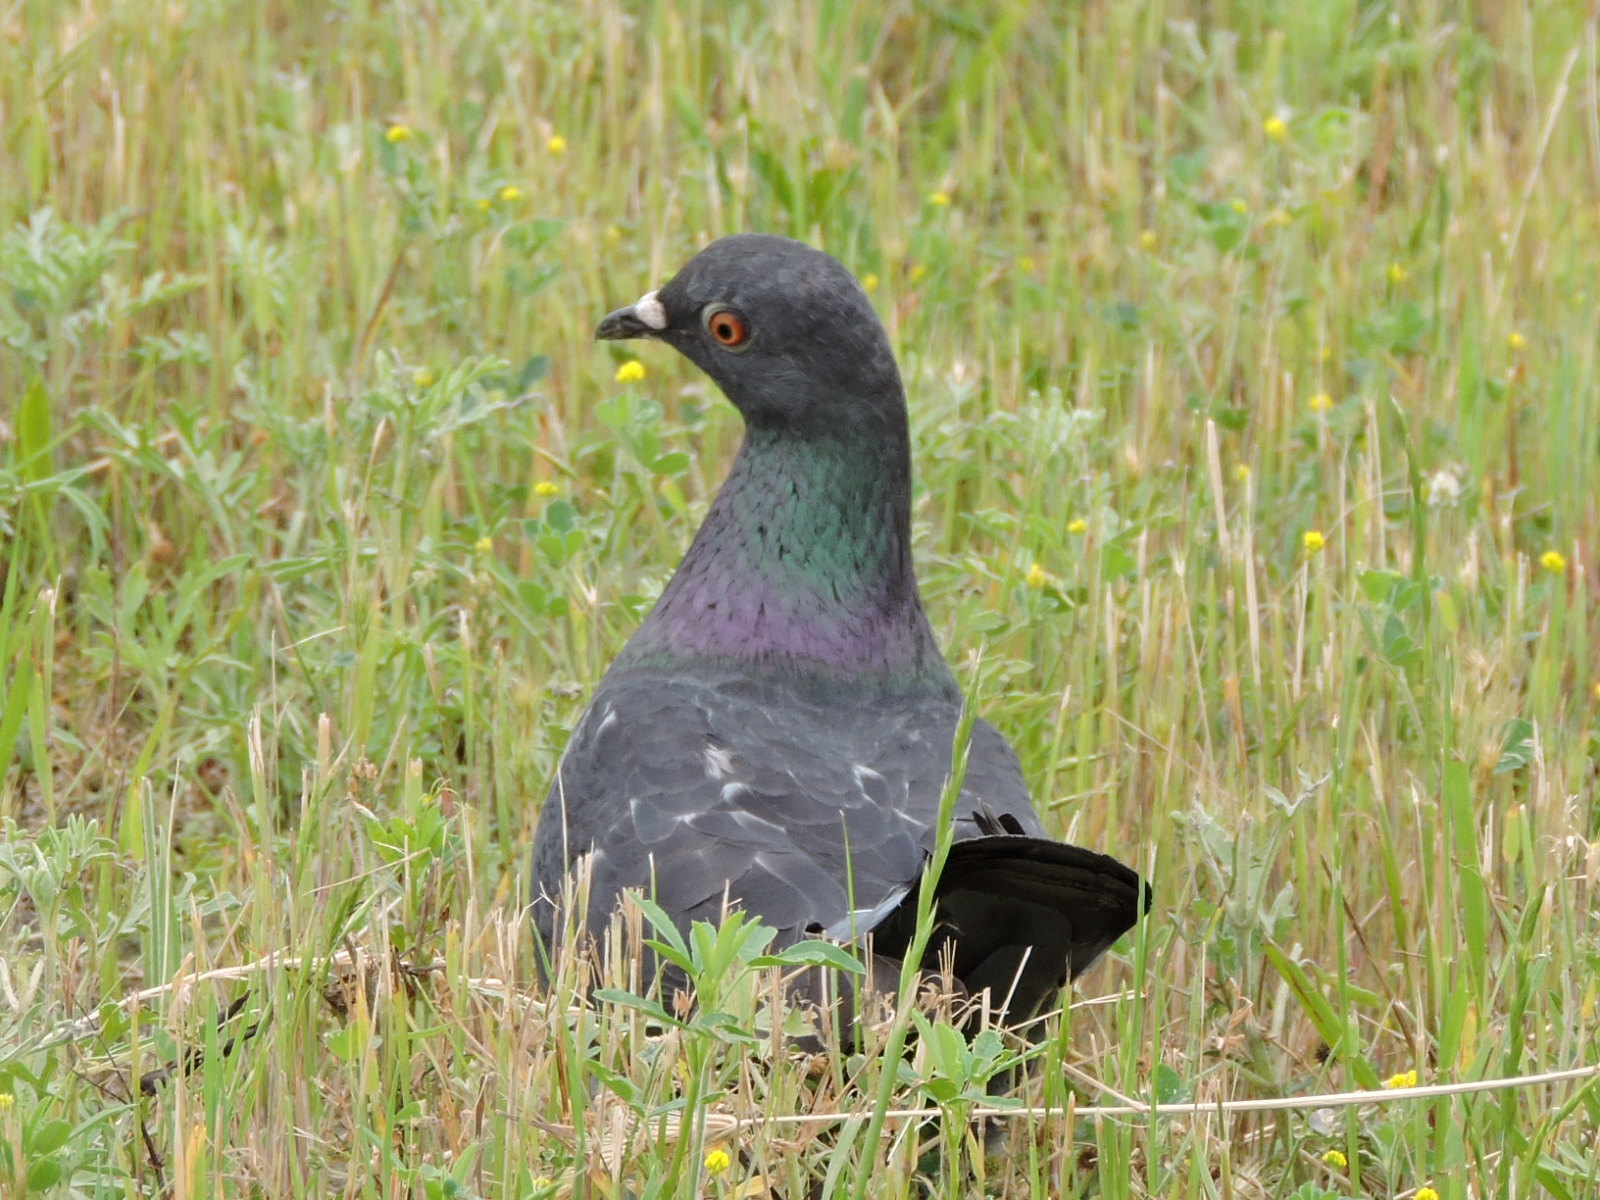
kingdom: Animalia
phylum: Chordata
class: Aves
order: Columbiformes
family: Columbidae
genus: Columba
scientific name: Columba livia
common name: Rock pigeon
